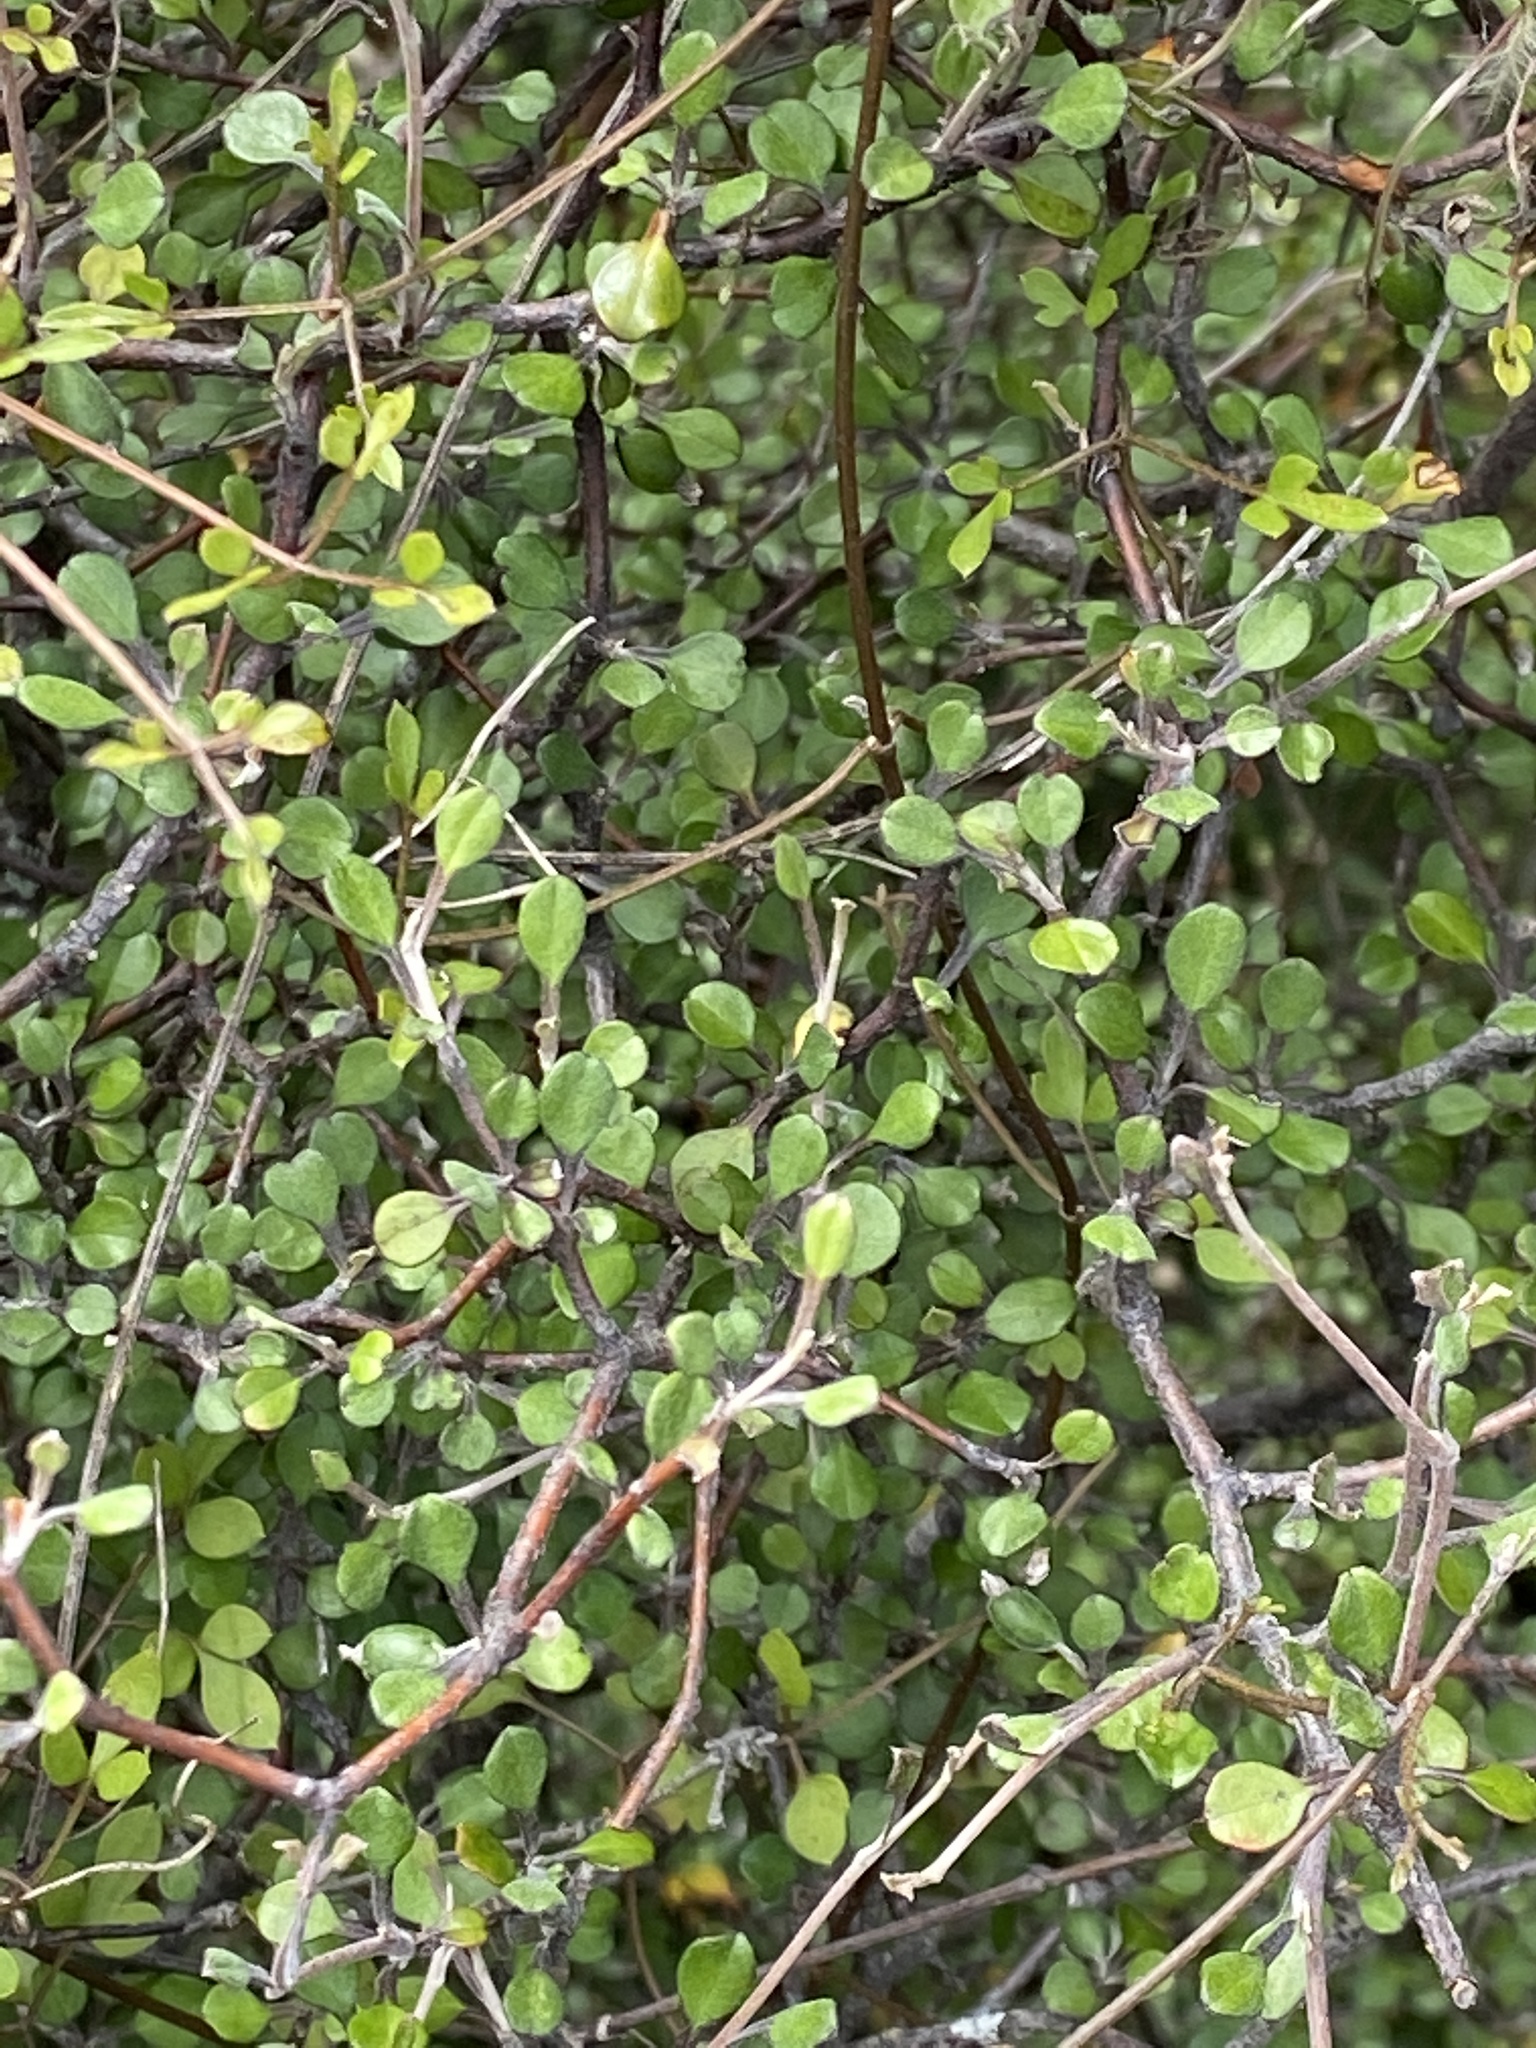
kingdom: Plantae
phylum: Tracheophyta
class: Magnoliopsida
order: Asterales
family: Argophyllaceae
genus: Corokia
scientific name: Corokia cotoneaster
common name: Wire nettingbush
